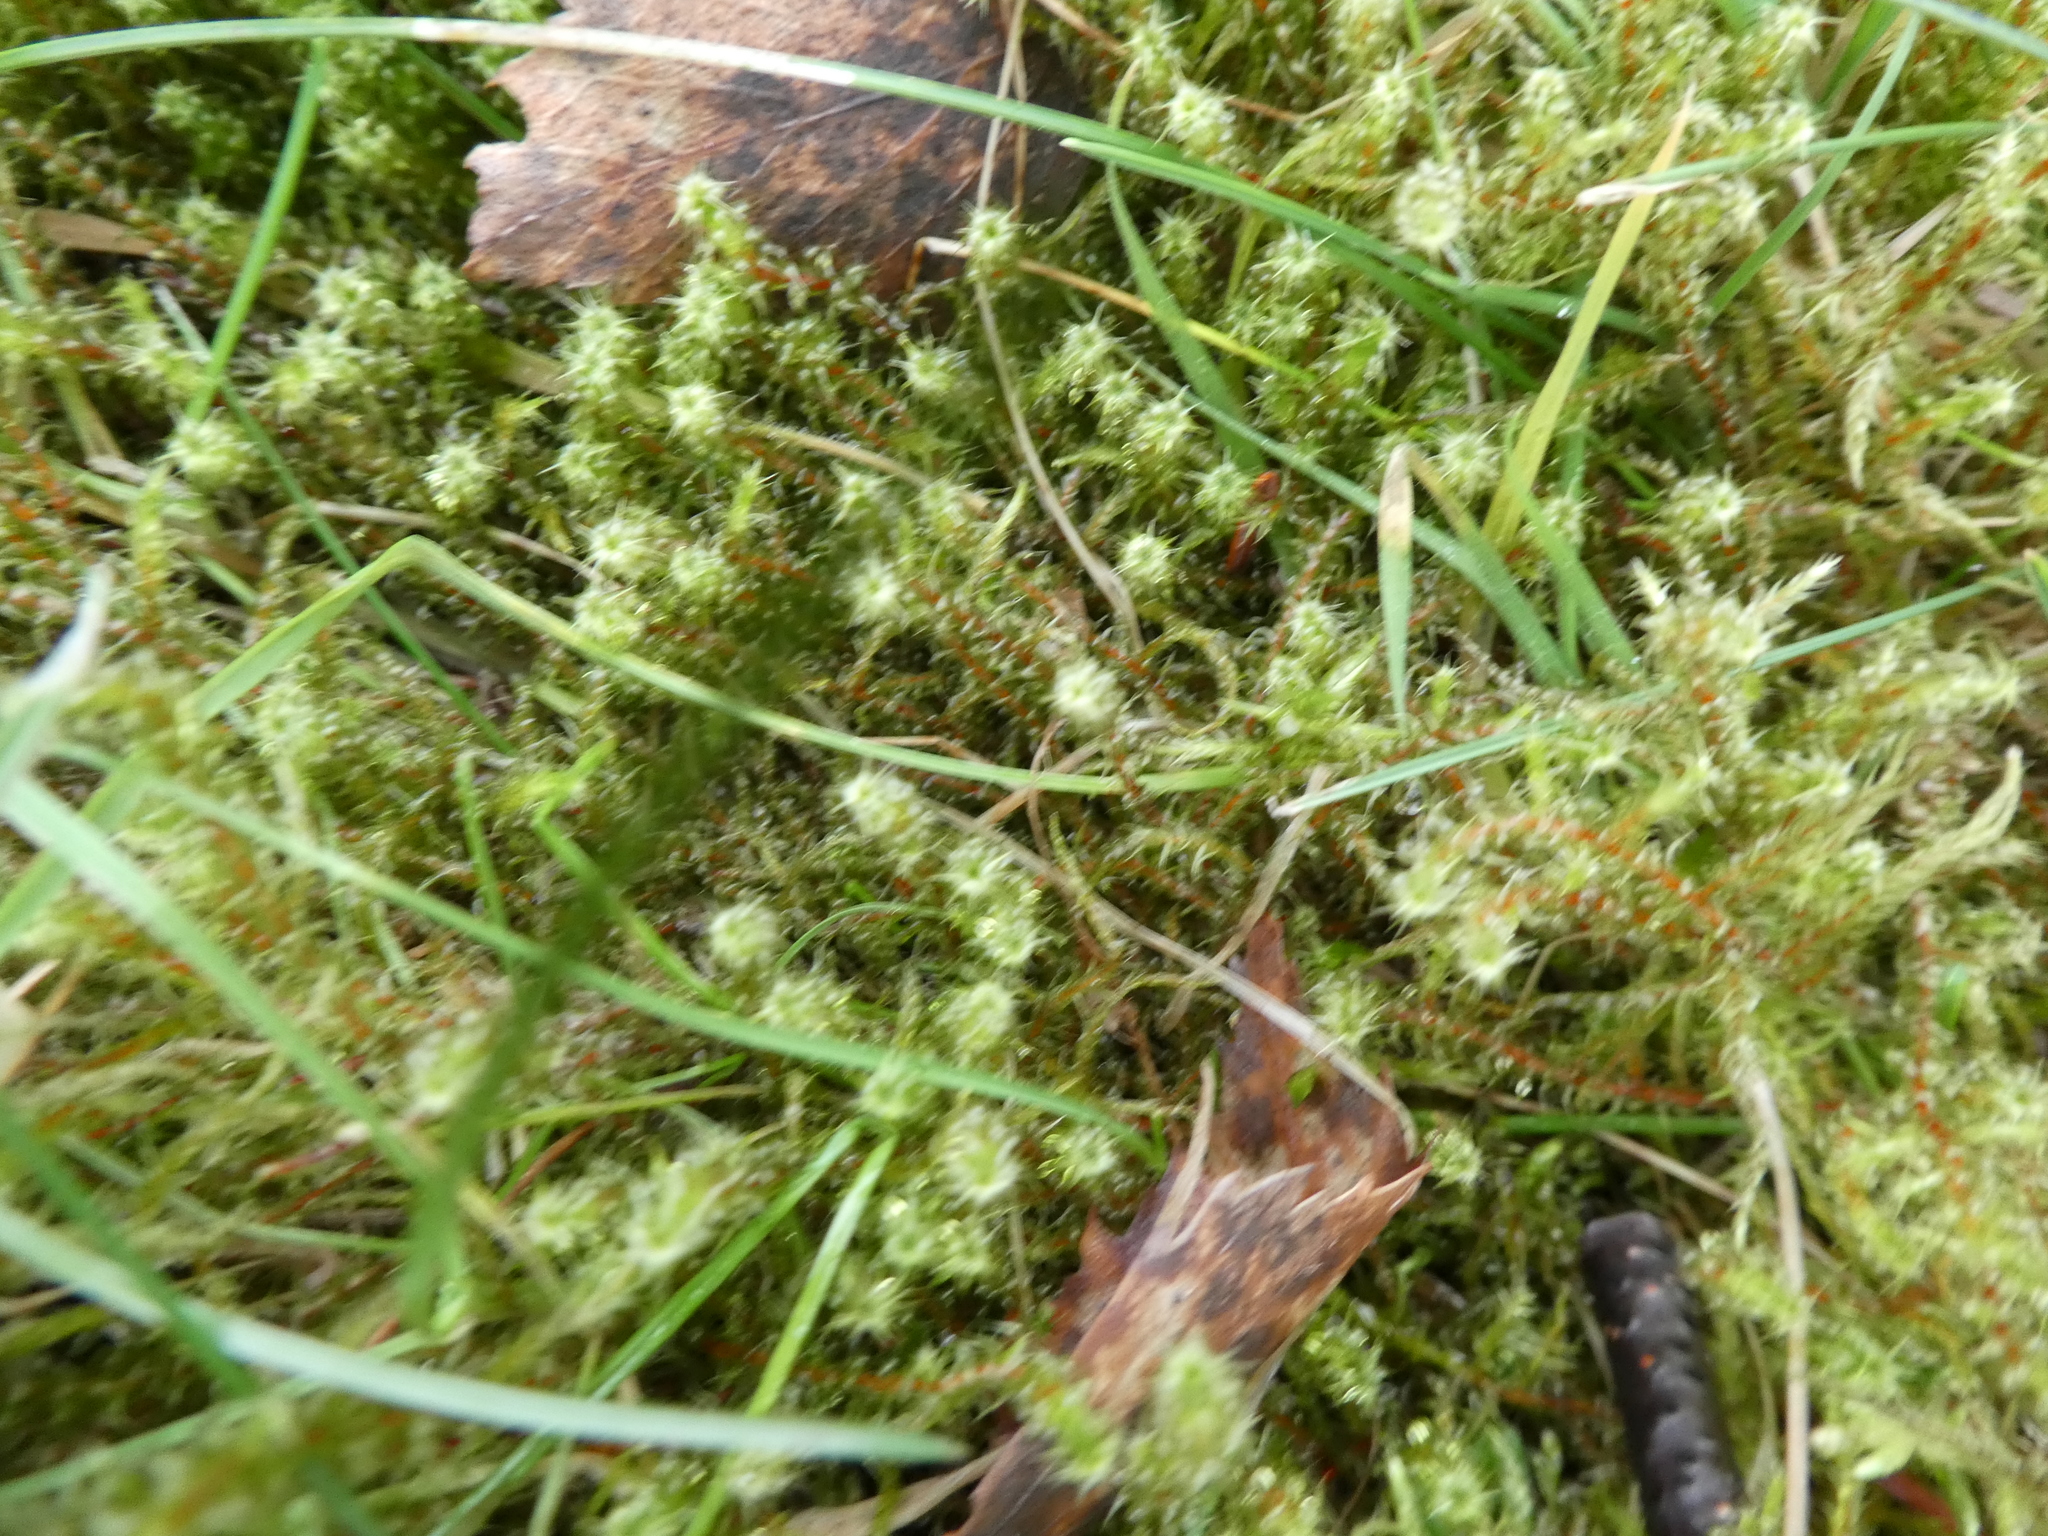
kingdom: Plantae
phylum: Bryophyta
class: Bryopsida
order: Hypnales
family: Hylocomiaceae
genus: Rhytidiadelphus
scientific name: Rhytidiadelphus squarrosus
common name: Springy turf-moss
